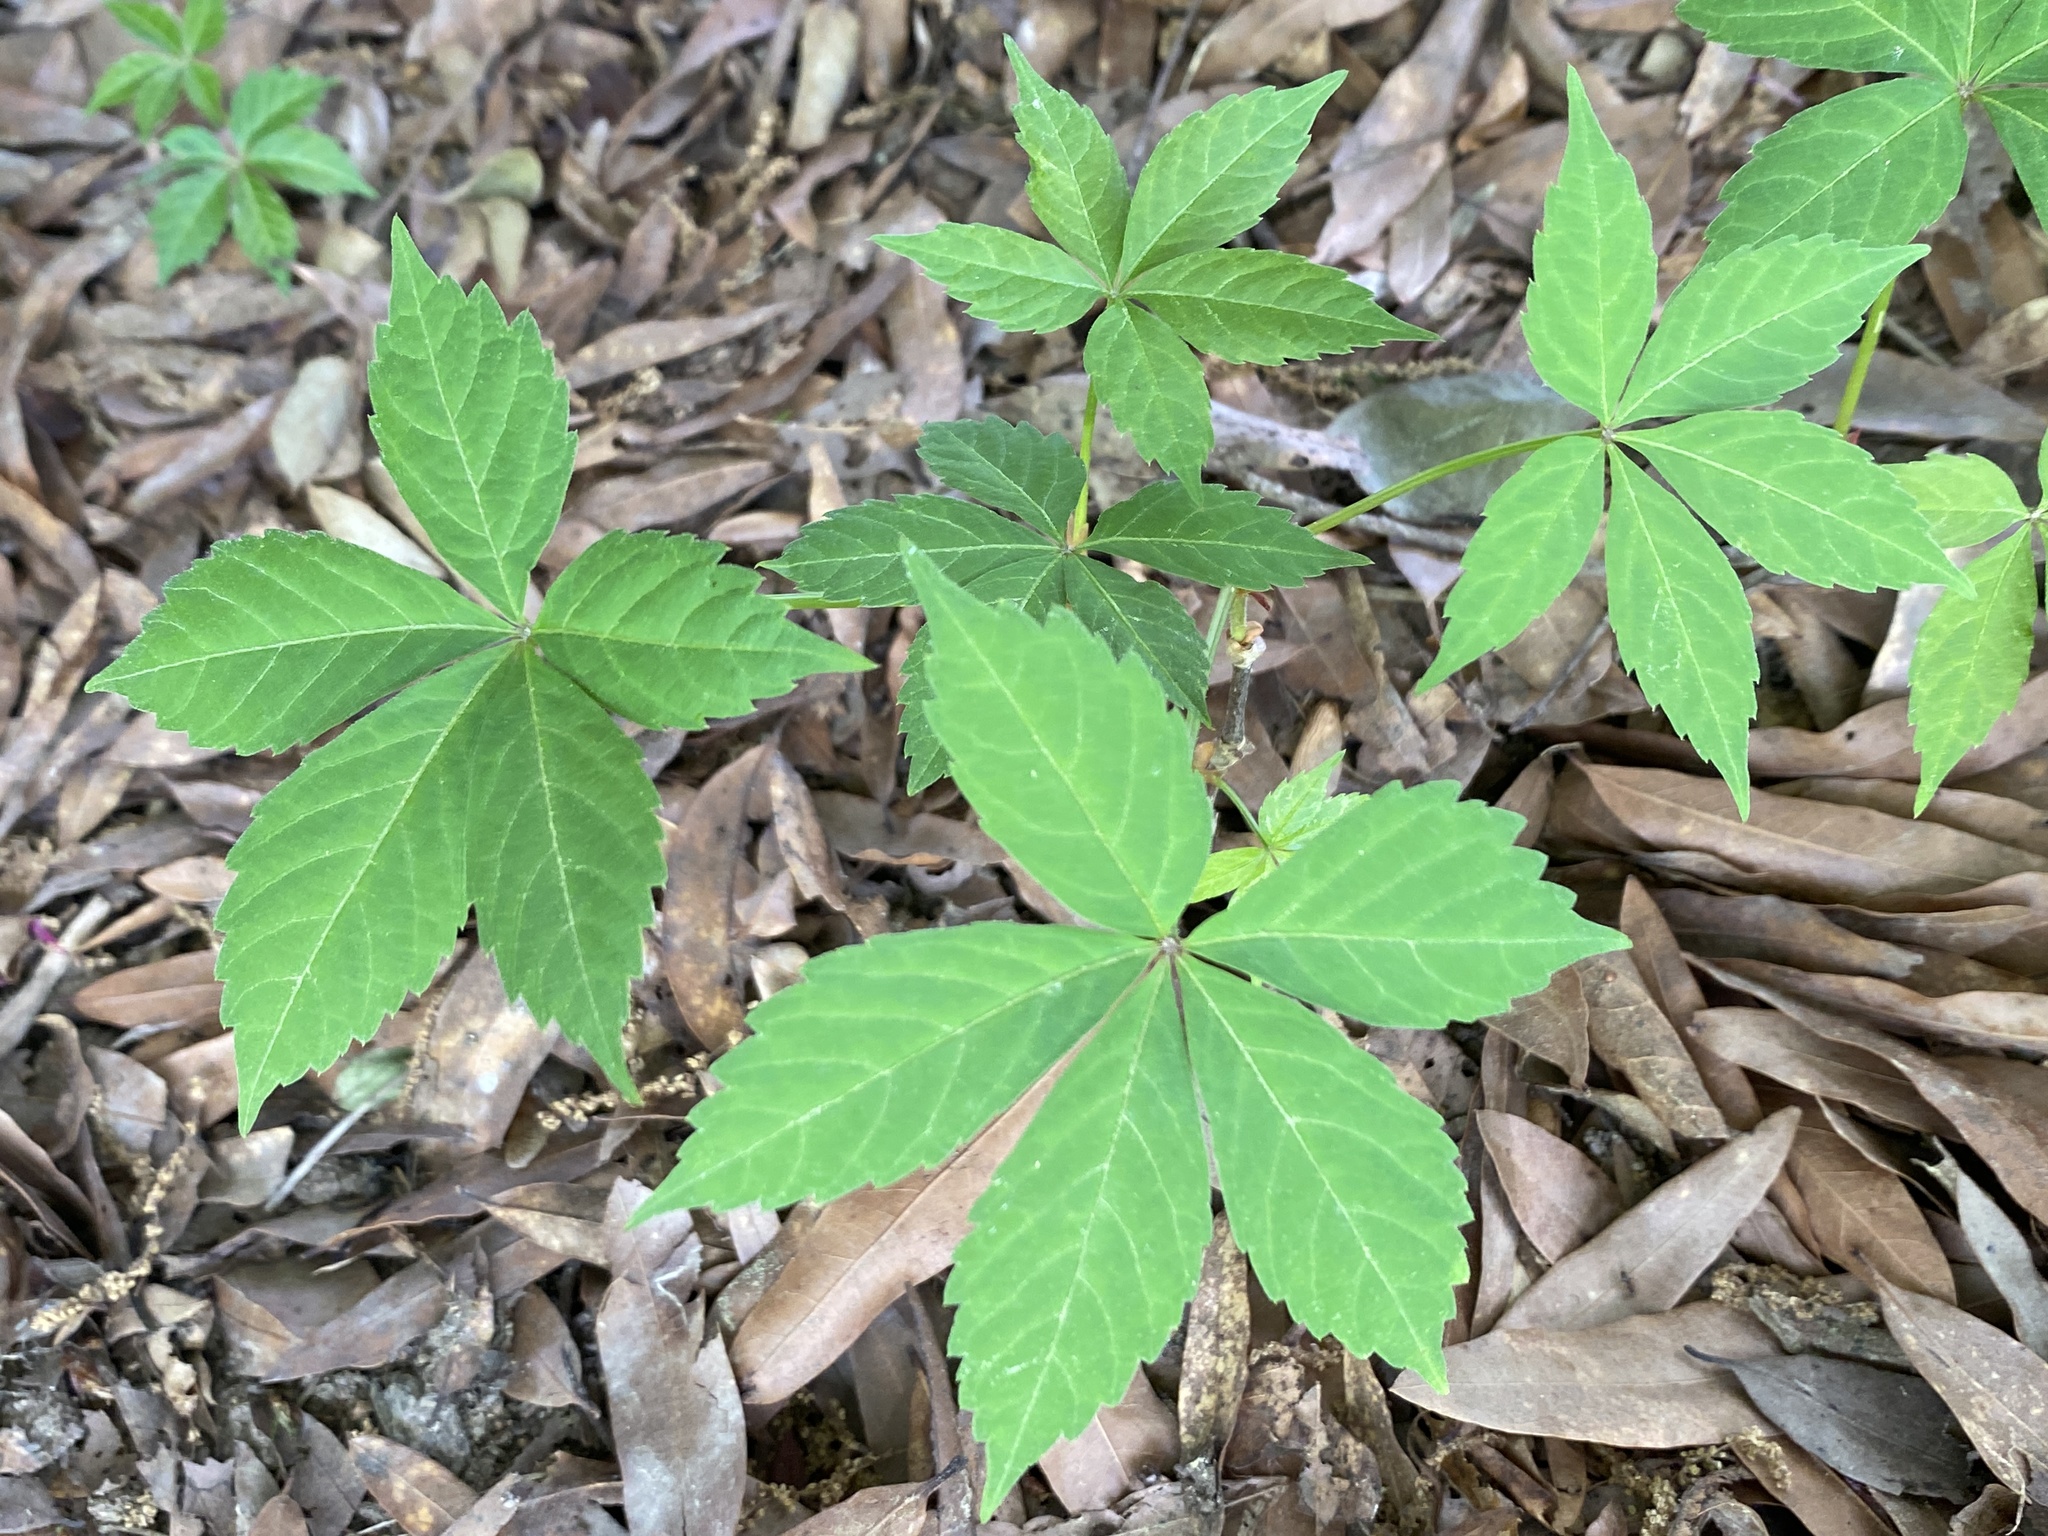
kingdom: Plantae
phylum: Tracheophyta
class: Magnoliopsida
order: Vitales
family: Vitaceae
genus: Parthenocissus
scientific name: Parthenocissus quinquefolia
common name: Virginia-creeper
